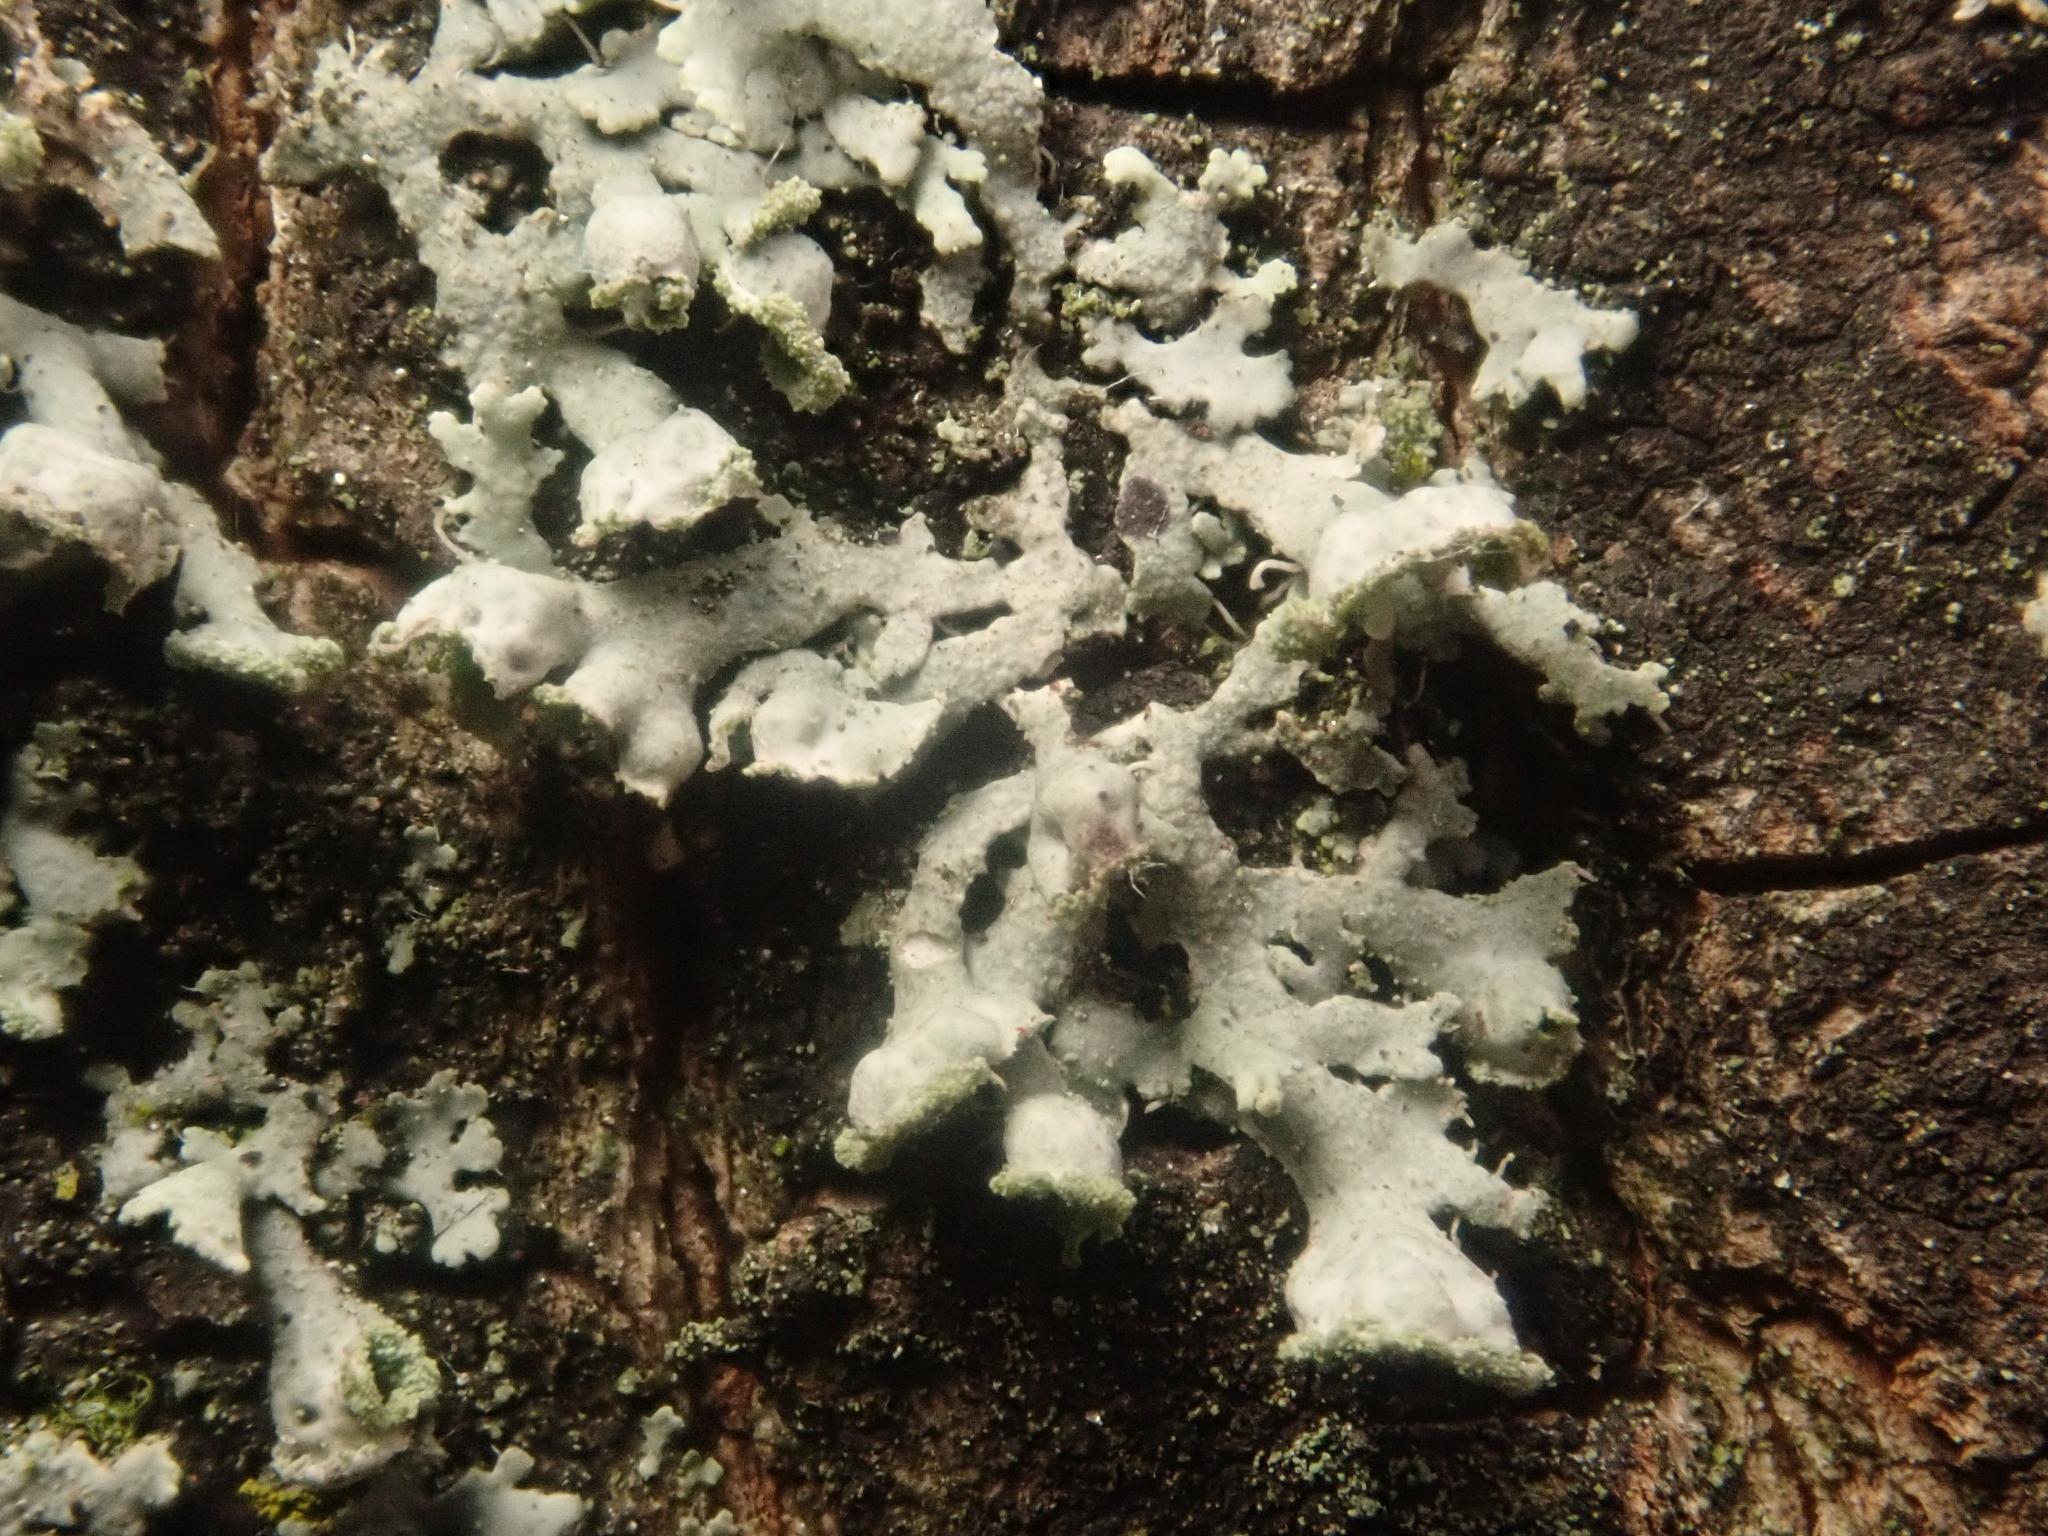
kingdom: Fungi
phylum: Ascomycota
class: Lecanoromycetes
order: Caliciales
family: Physciaceae
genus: Physcia
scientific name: Physcia adscendens
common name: Hooded rosette lichen
